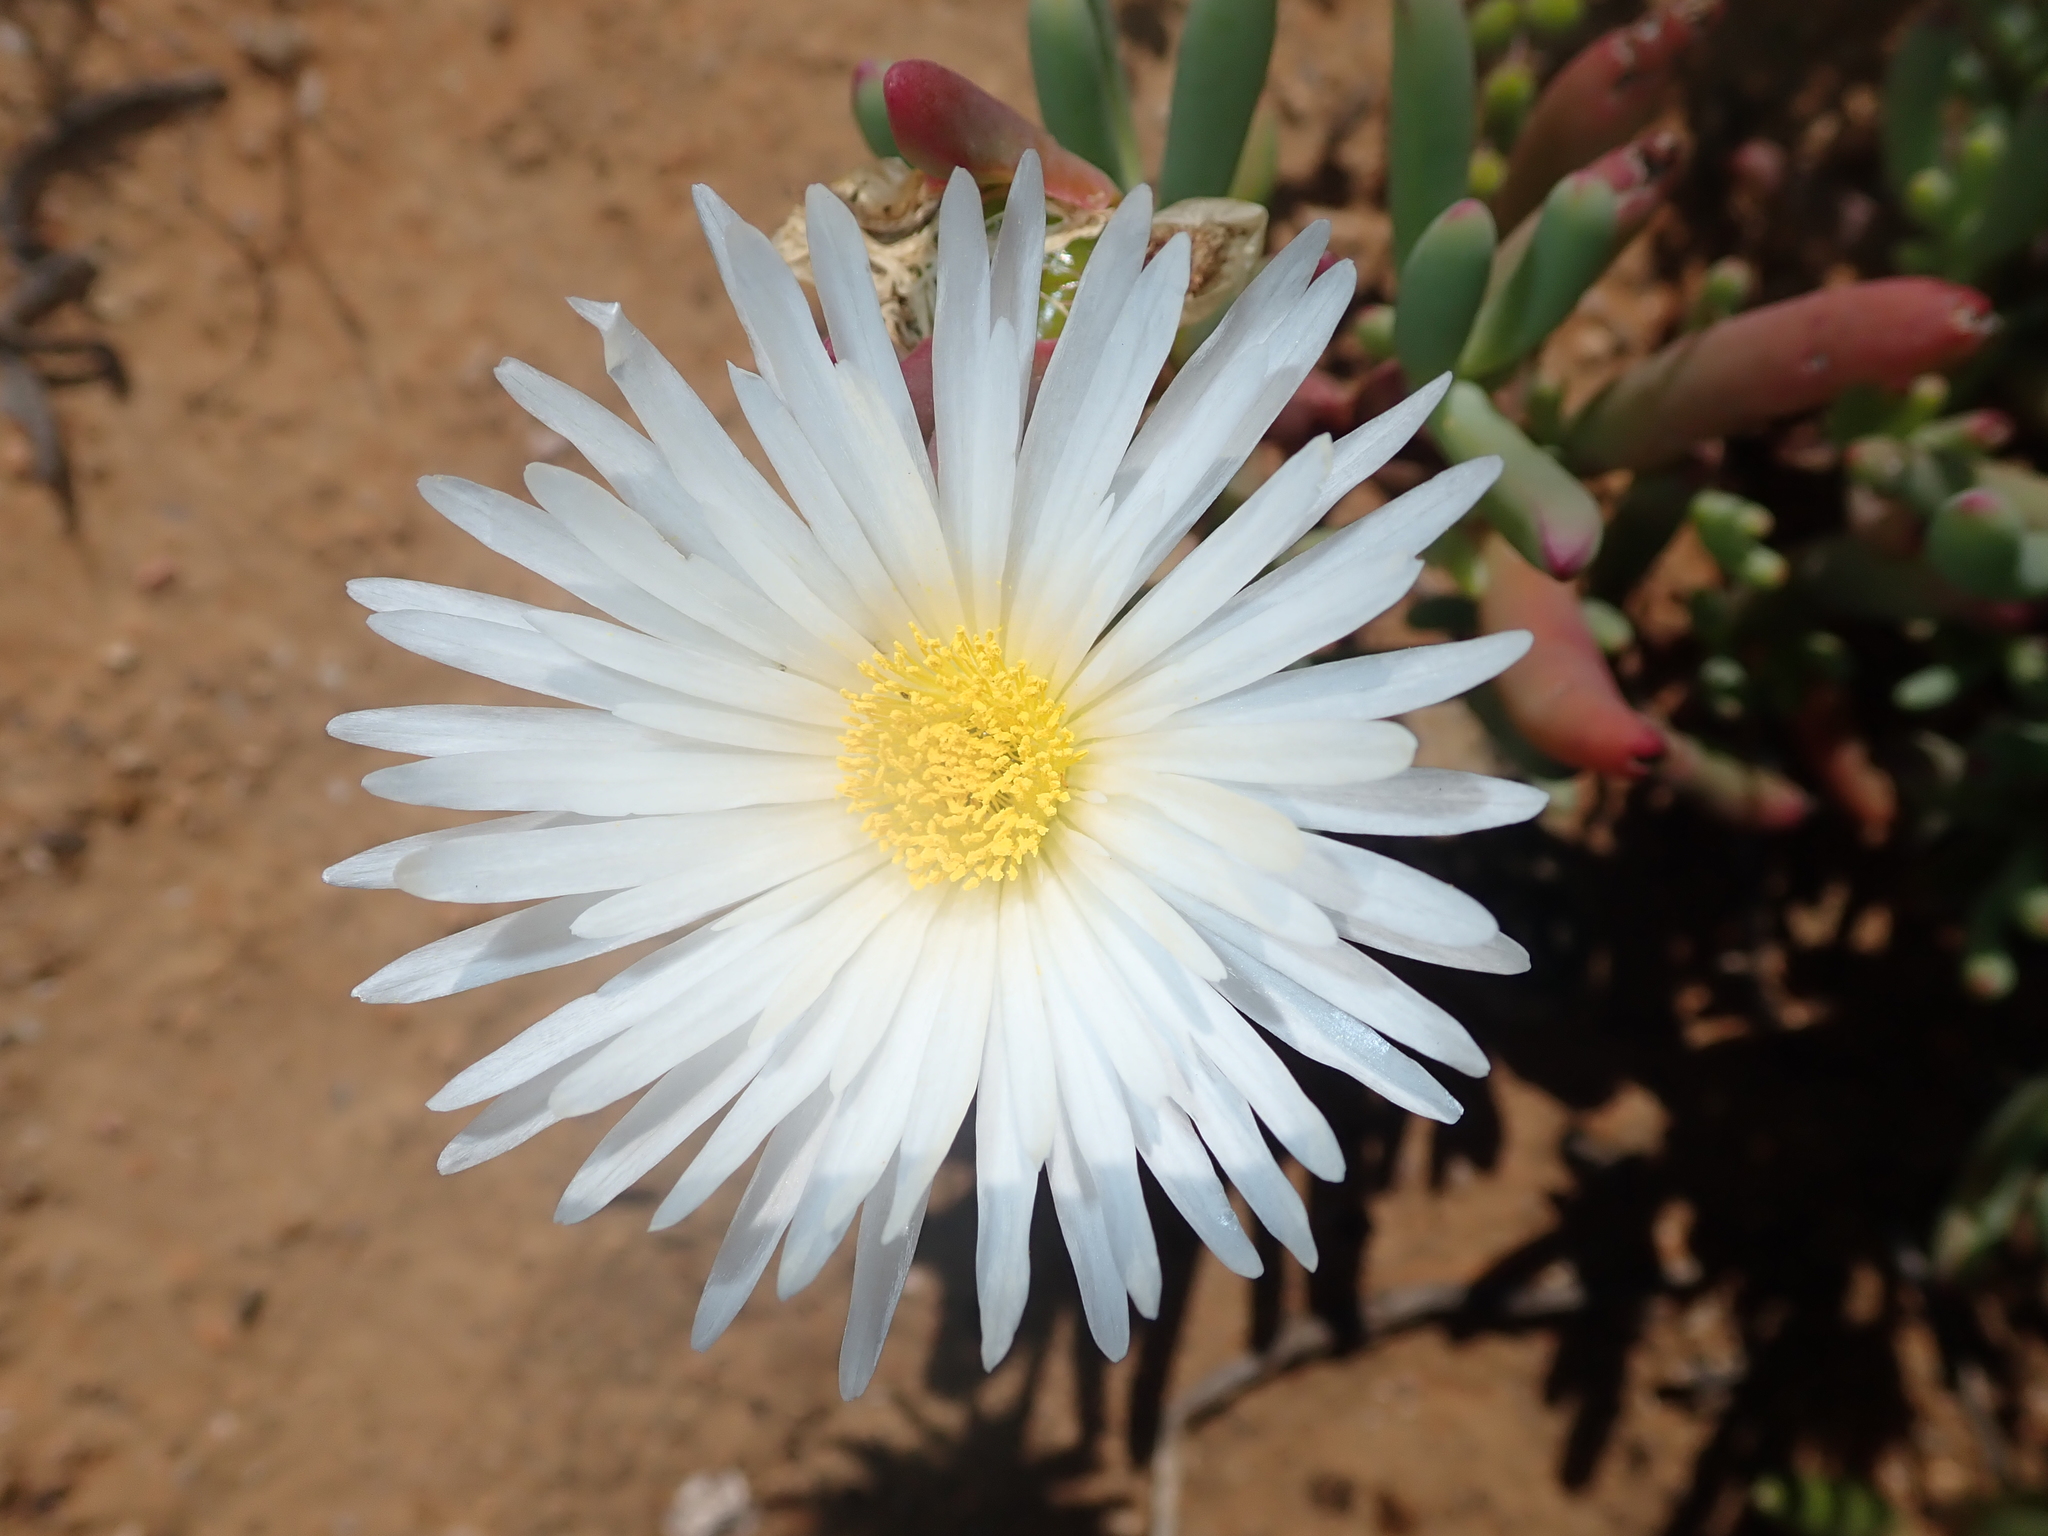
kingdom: Plantae
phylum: Tracheophyta
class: Magnoliopsida
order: Caryophyllales
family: Aizoaceae
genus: Lampranthus
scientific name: Lampranthus watermeyeri
